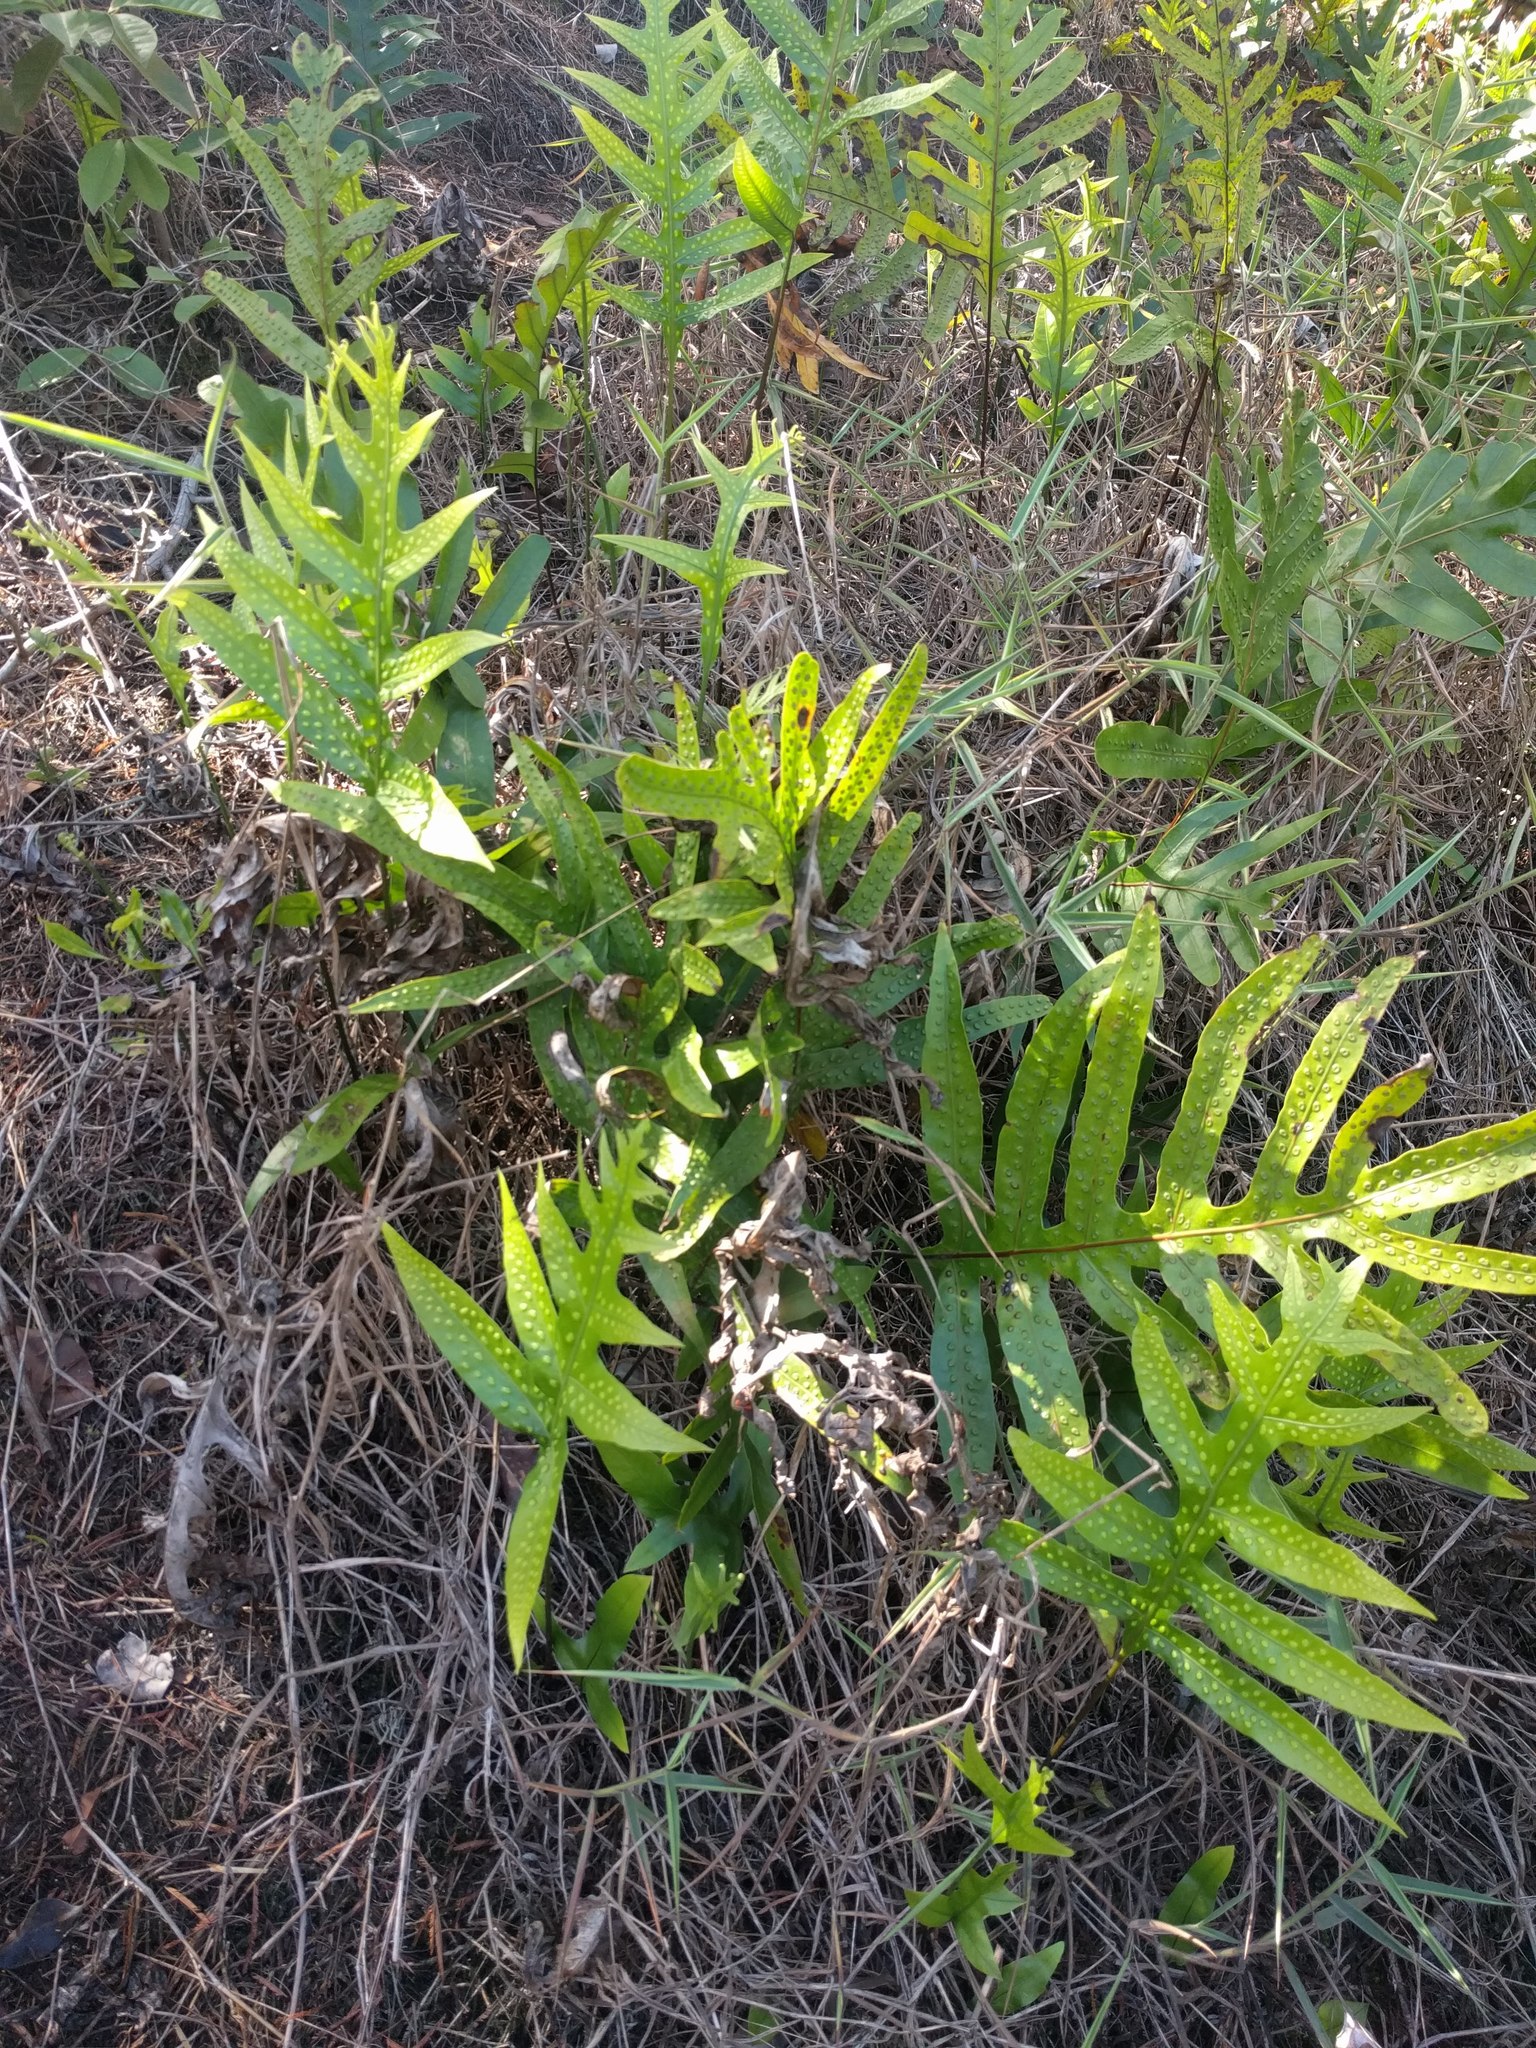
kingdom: Plantae
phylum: Tracheophyta
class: Polypodiopsida
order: Polypodiales
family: Polypodiaceae
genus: Microsorum
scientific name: Microsorum grossum
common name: Musk fern
